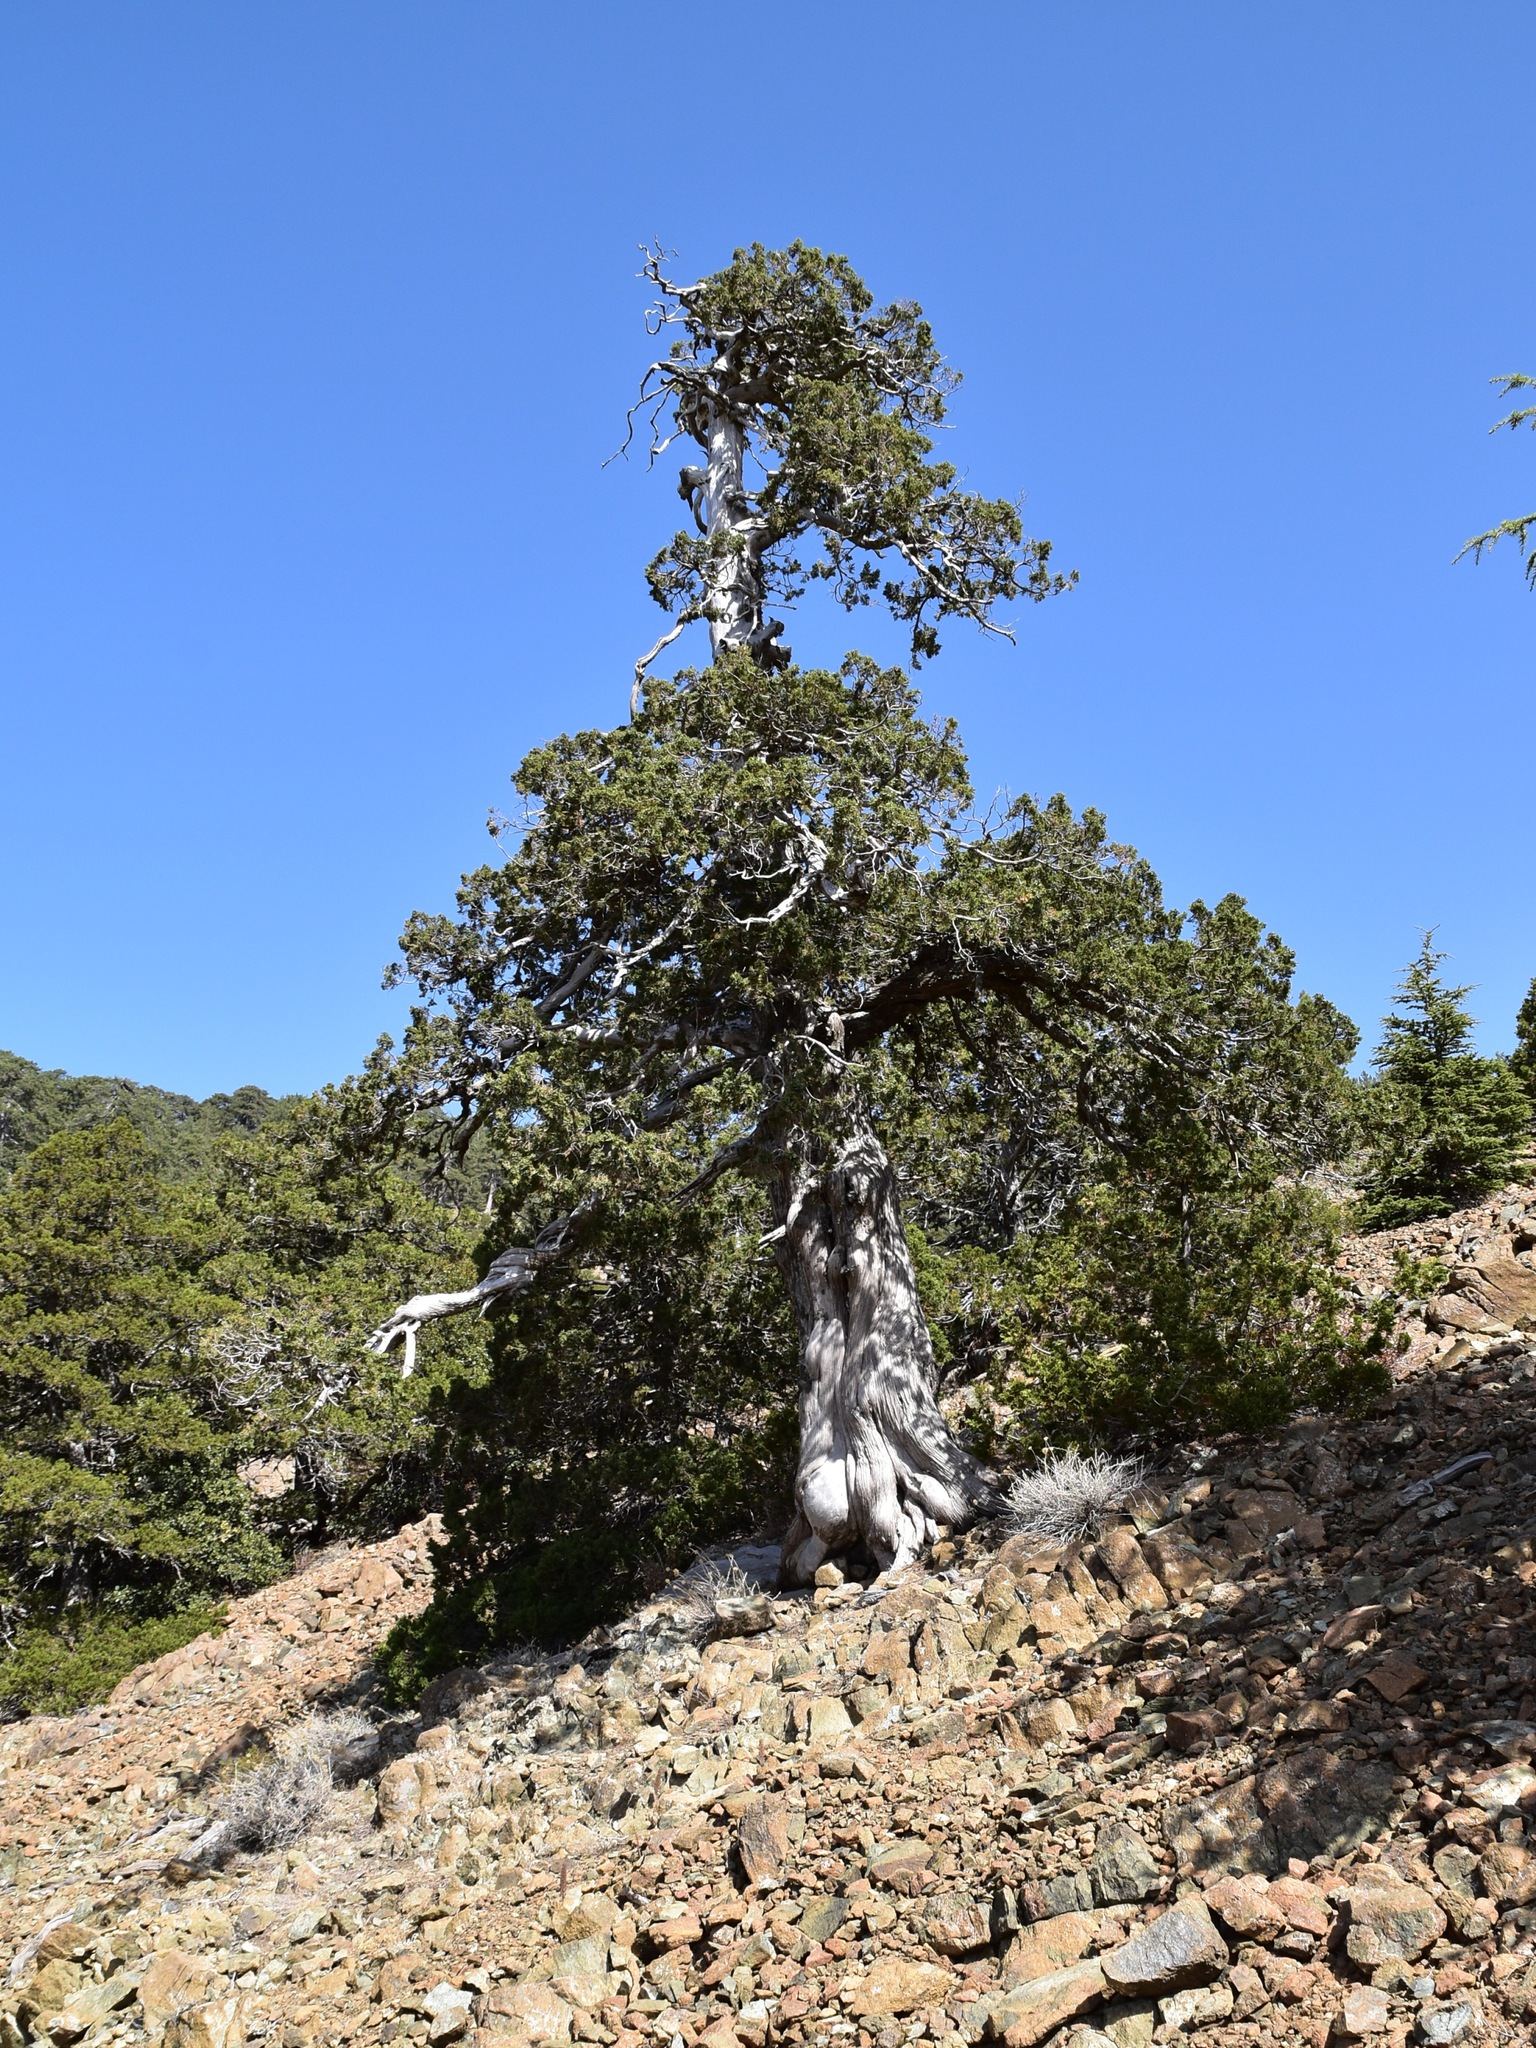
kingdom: Plantae
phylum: Tracheophyta
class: Pinopsida
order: Pinales
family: Cupressaceae
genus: Juniperus
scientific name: Juniperus foetidissima
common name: Stinking juniper
